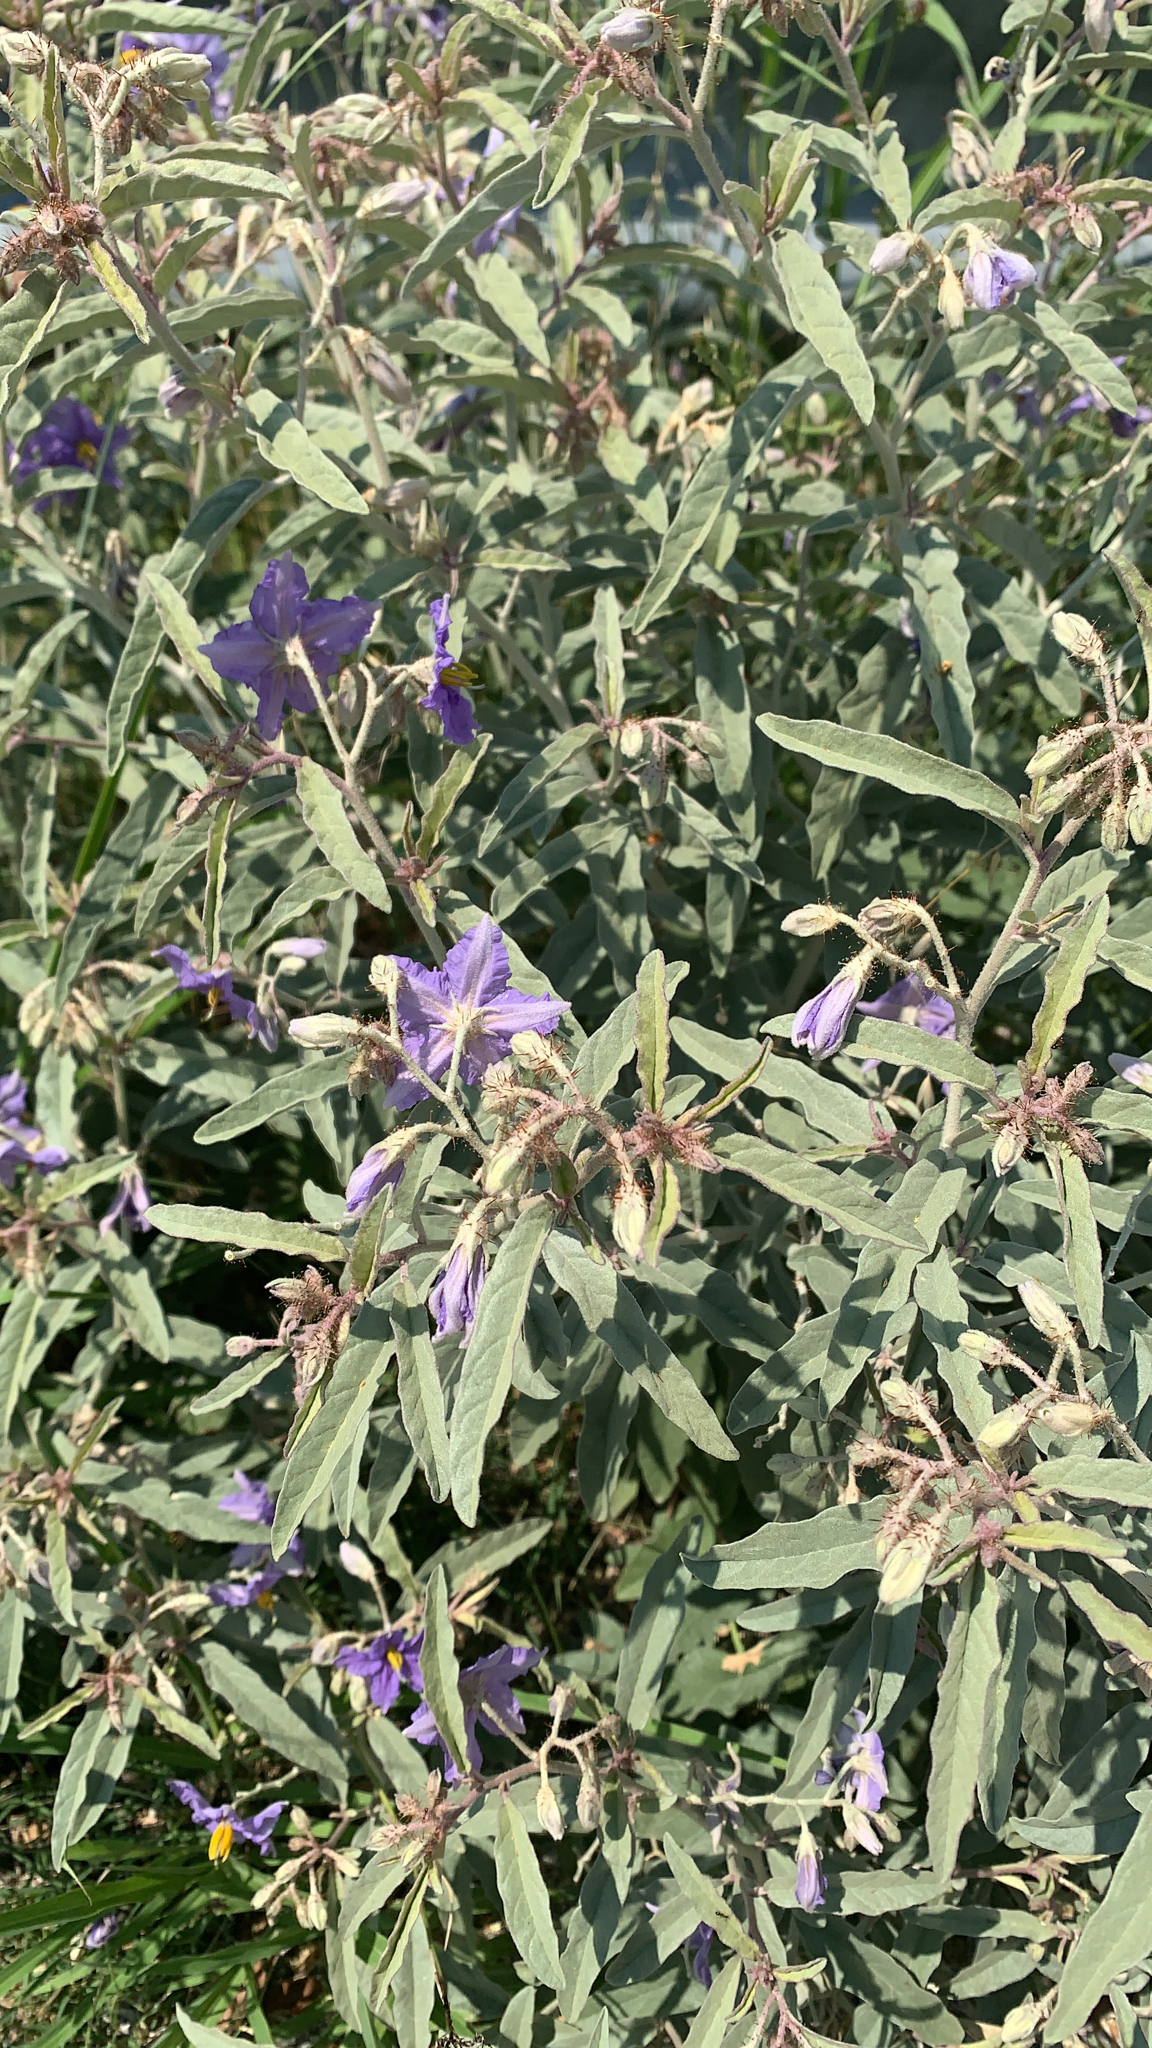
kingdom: Plantae
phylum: Tracheophyta
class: Magnoliopsida
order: Solanales
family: Solanaceae
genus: Solanum
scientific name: Solanum elaeagnifolium
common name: Silverleaf nightshade
